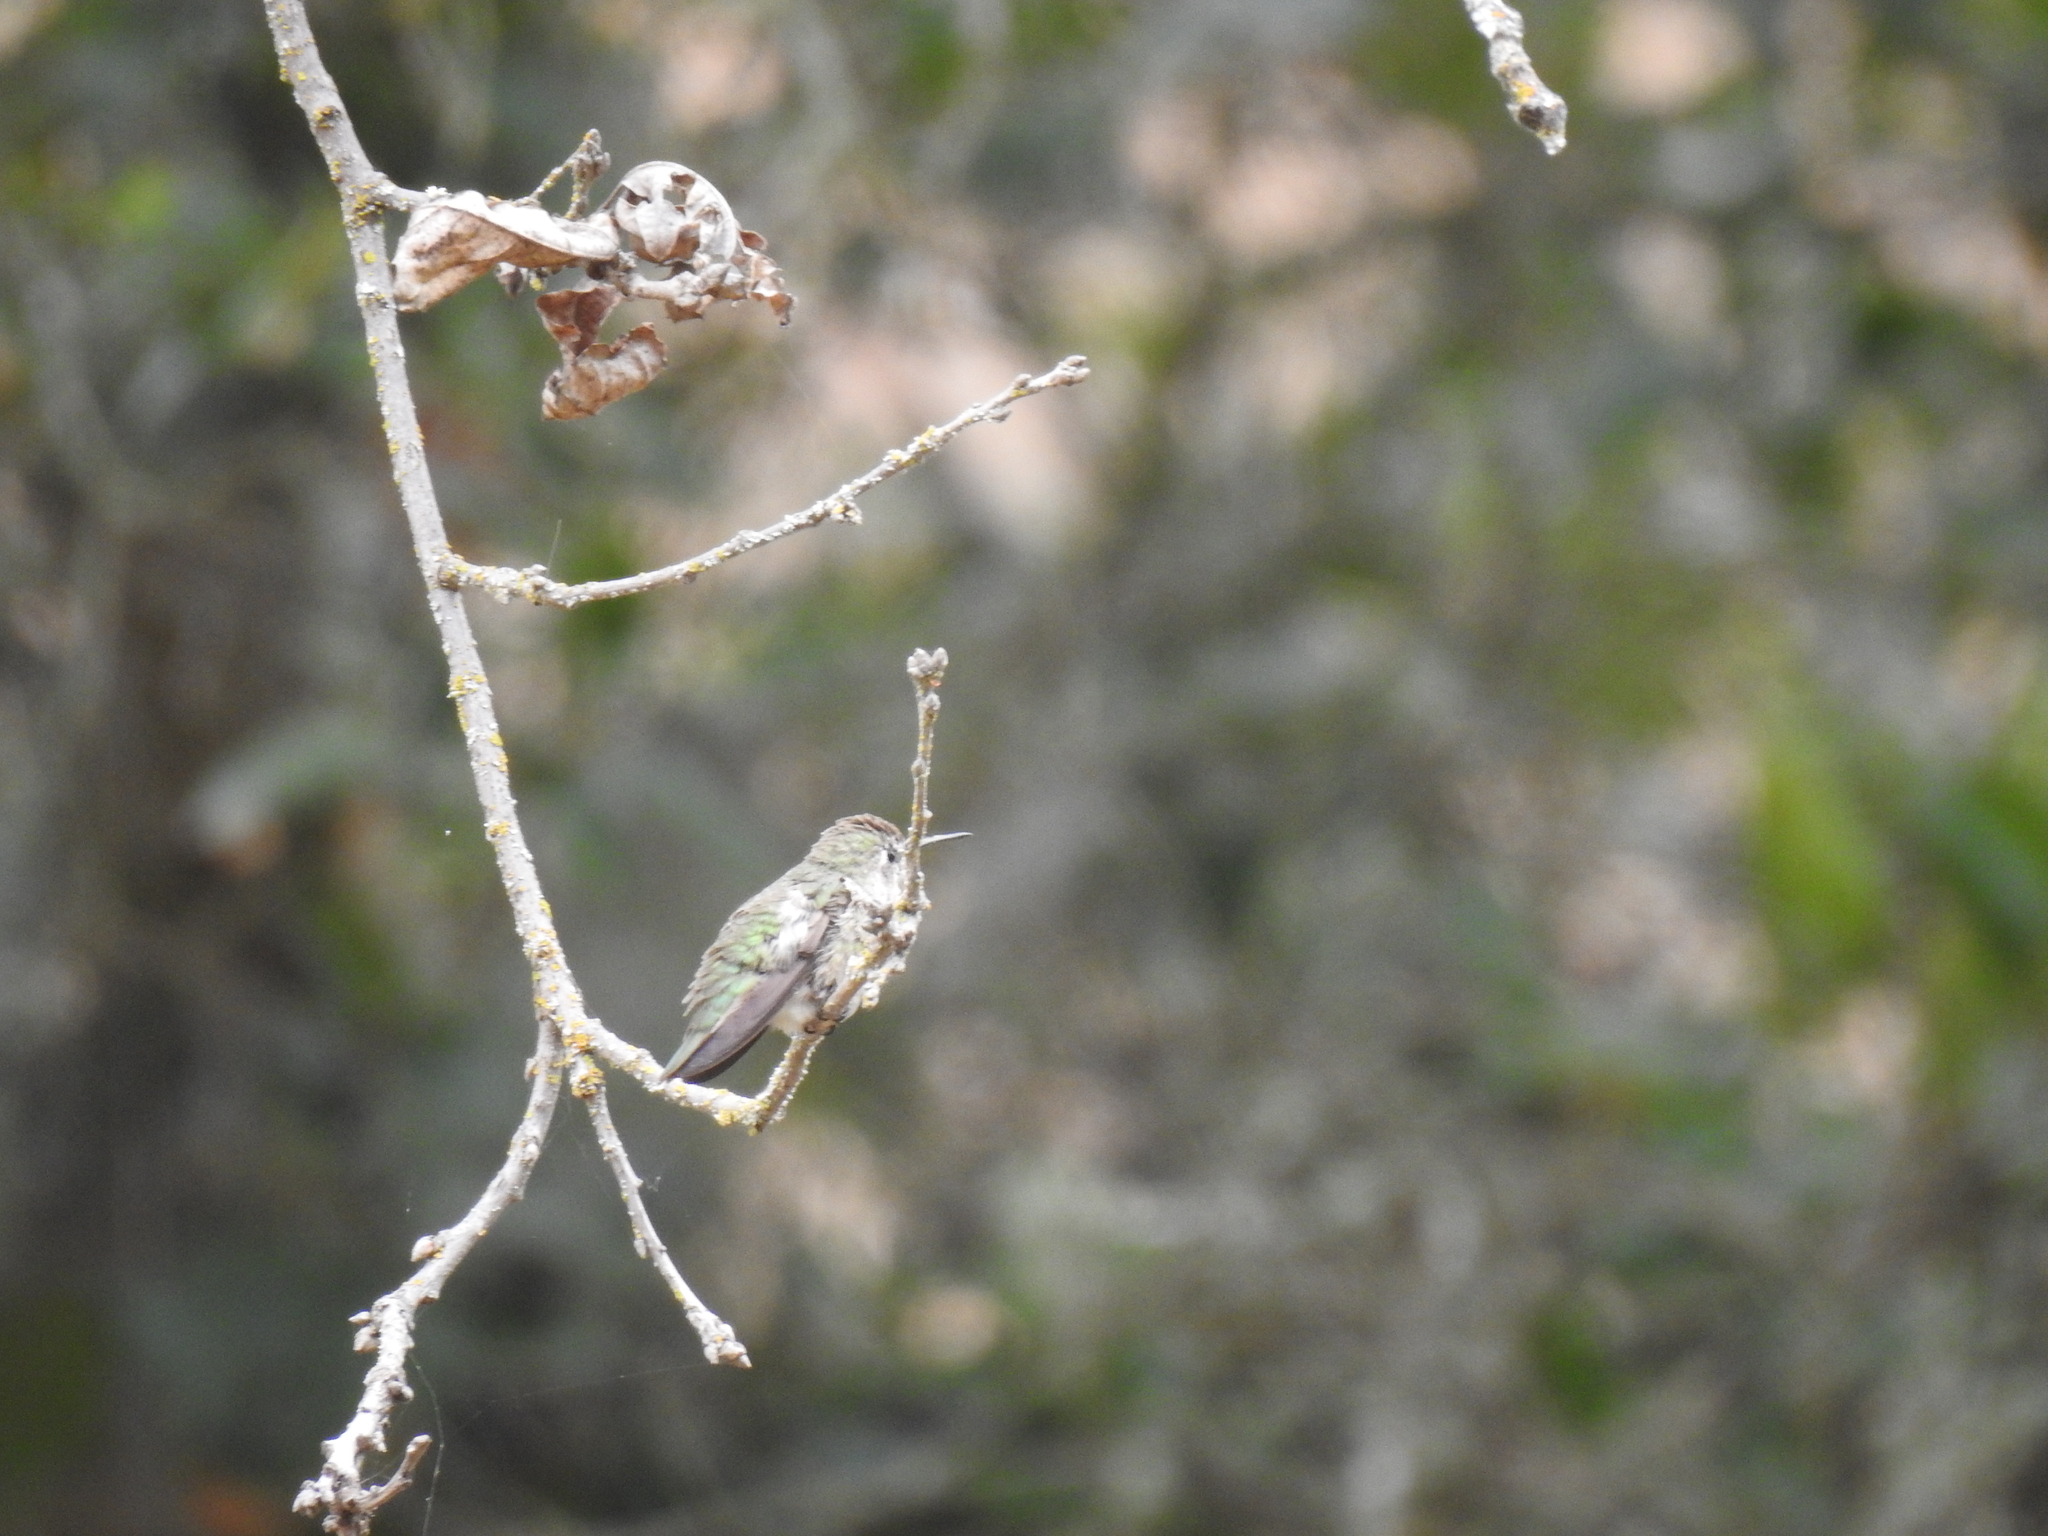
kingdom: Animalia
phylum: Chordata
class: Aves
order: Apodiformes
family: Trochilidae
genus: Calypte
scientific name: Calypte anna
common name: Anna's hummingbird
